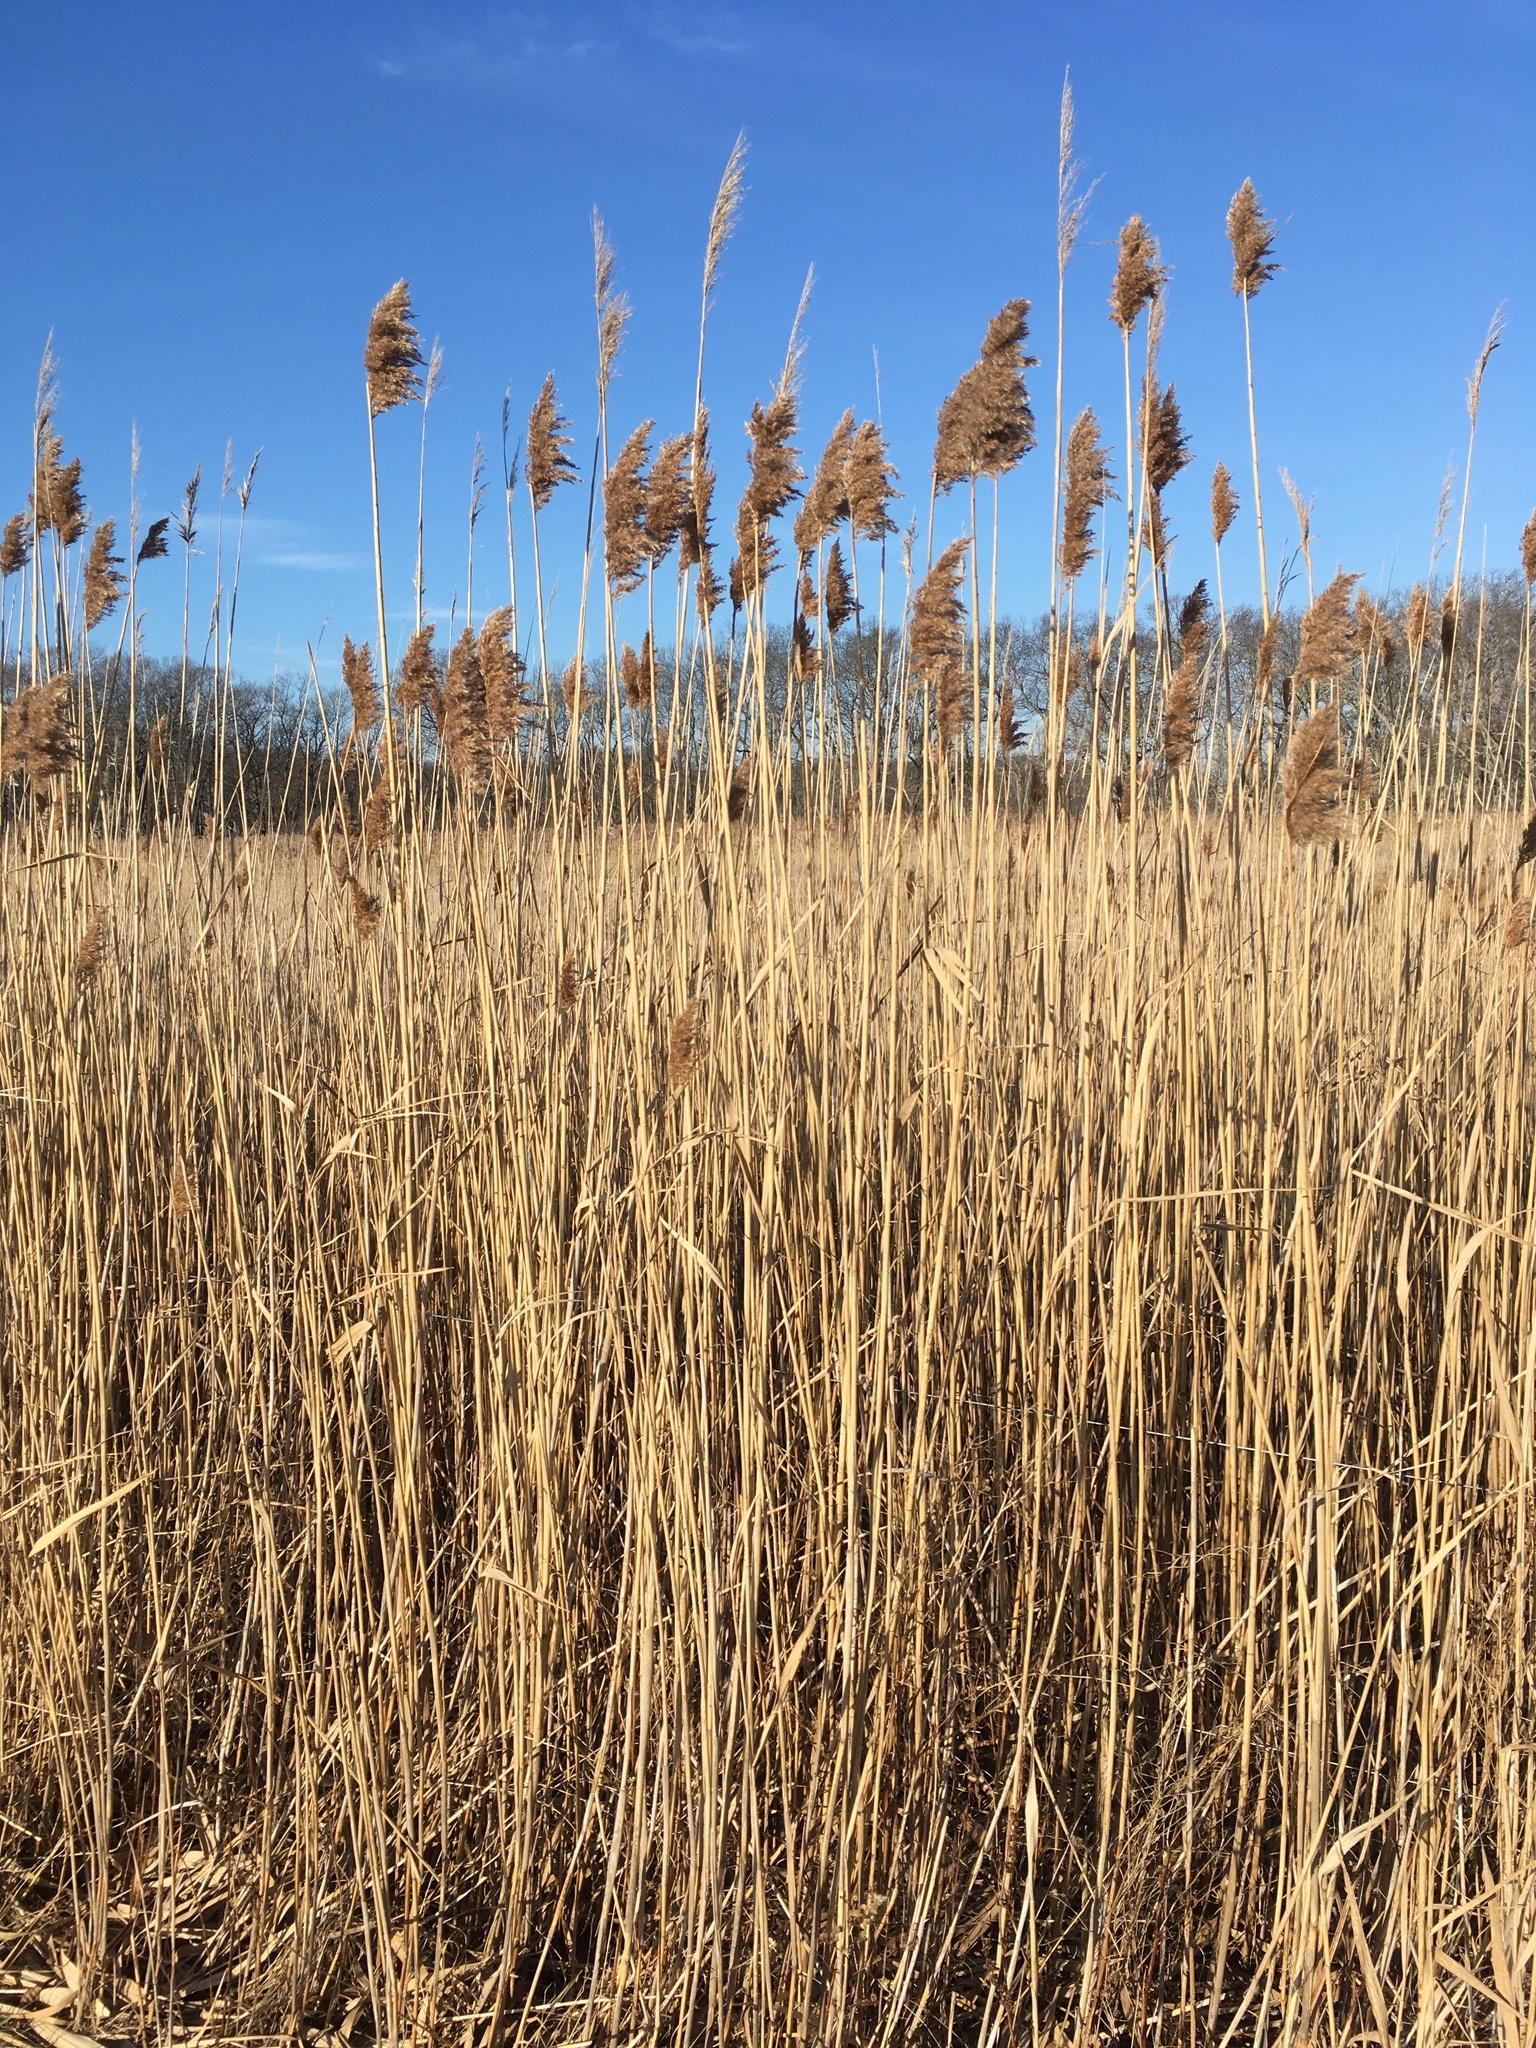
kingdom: Plantae
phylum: Tracheophyta
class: Liliopsida
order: Poales
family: Poaceae
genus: Phragmites
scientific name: Phragmites australis
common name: Common reed
